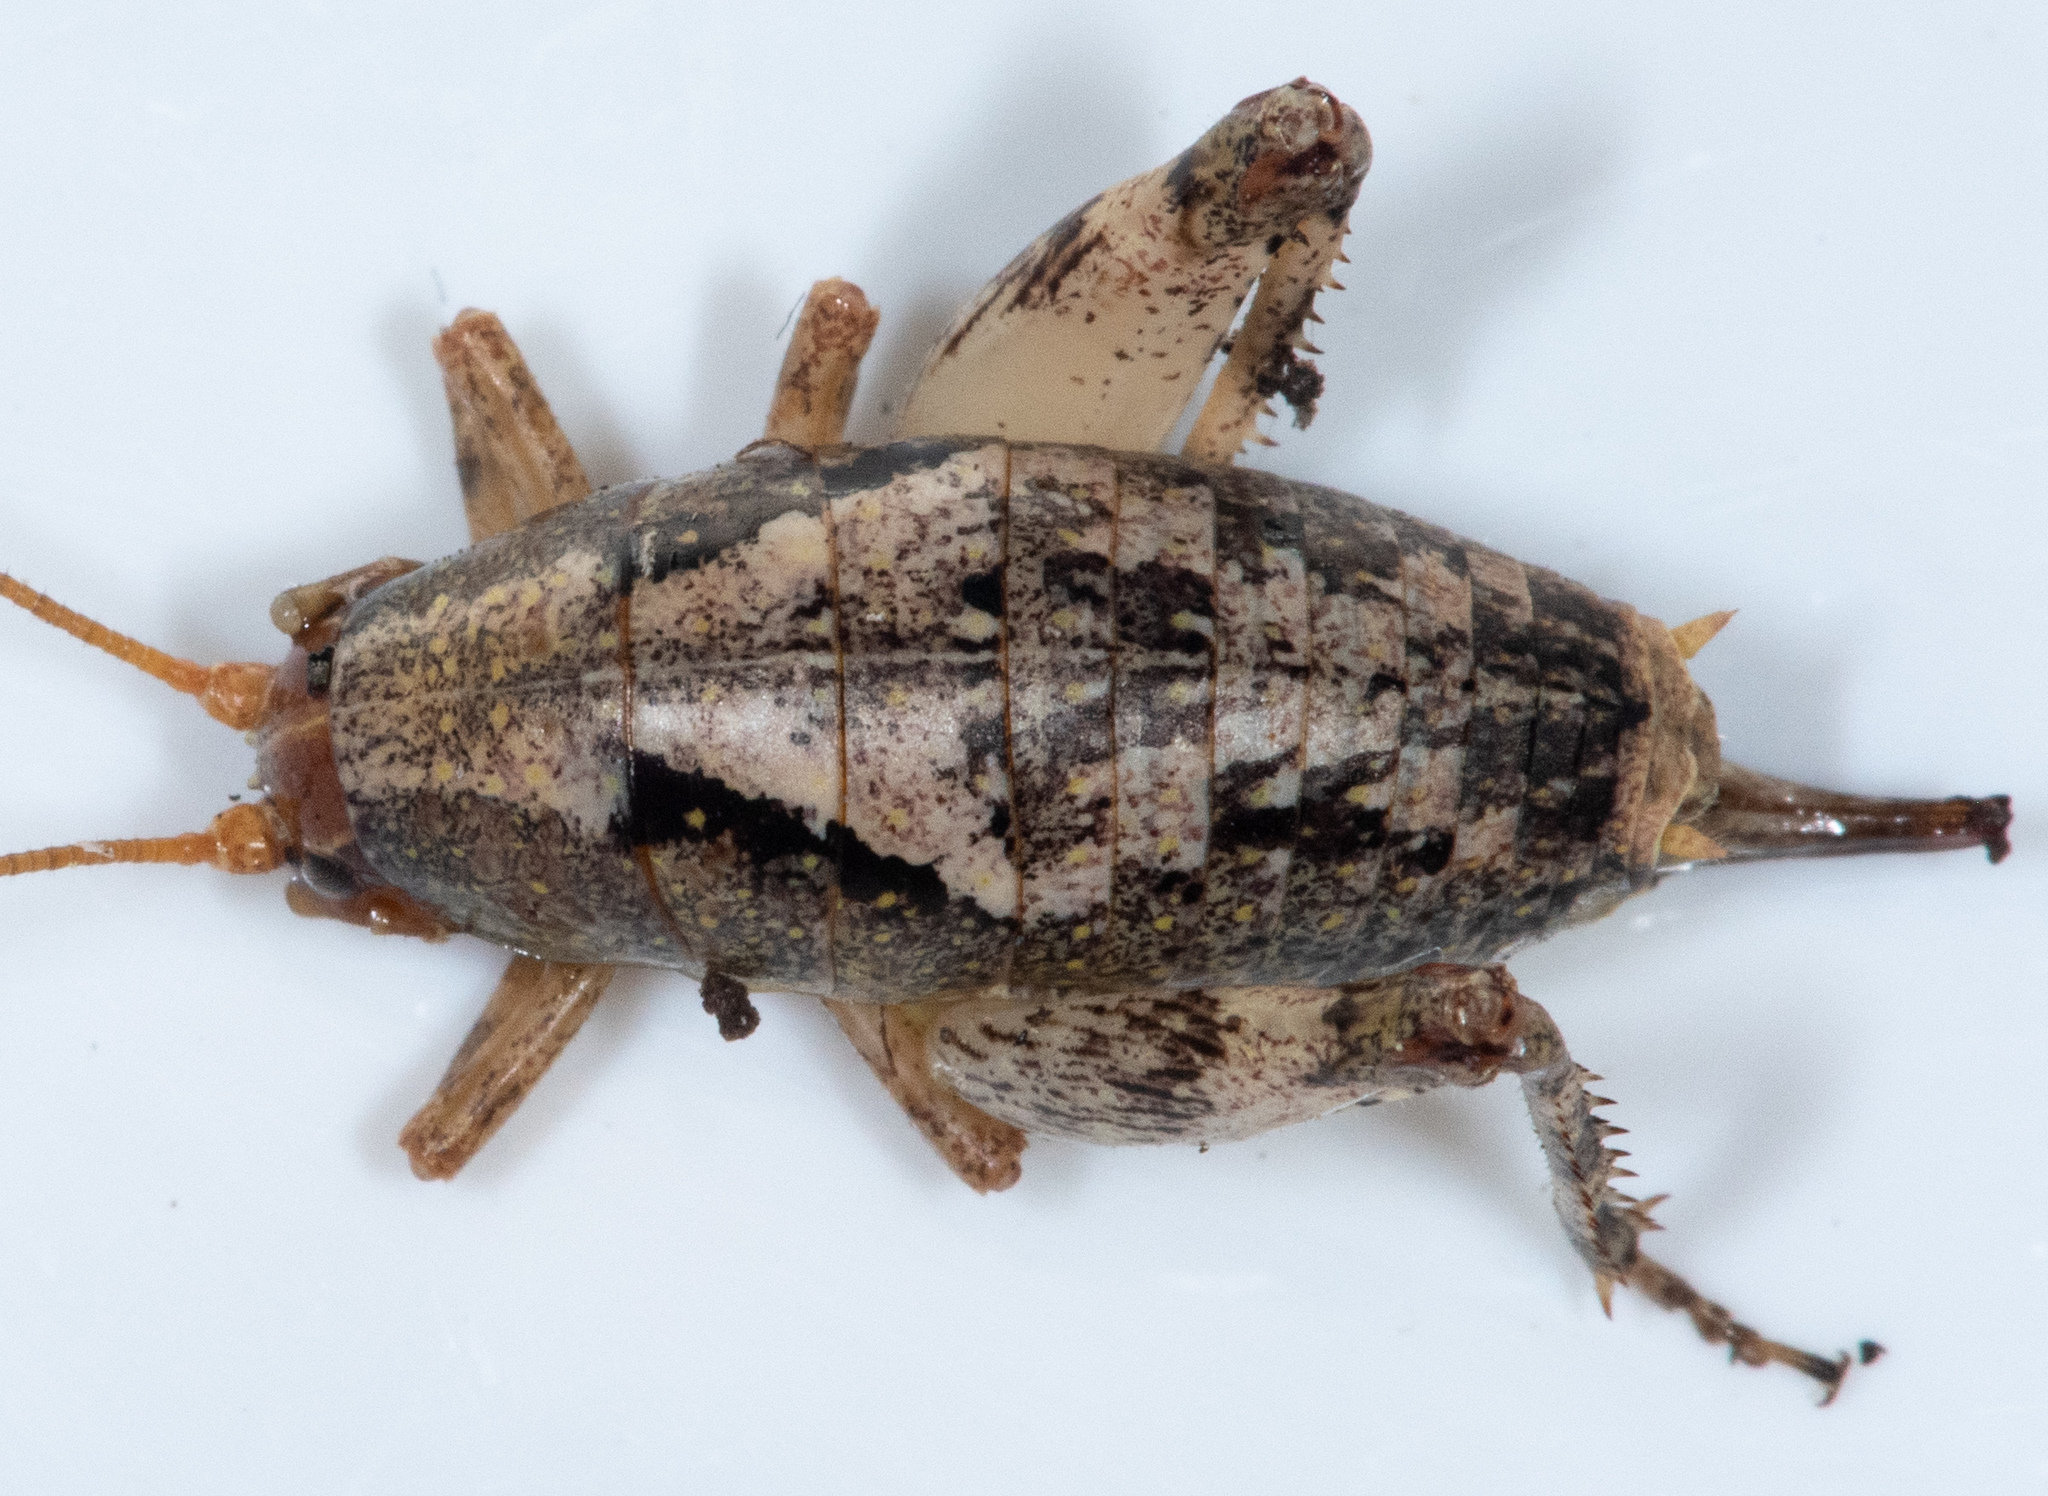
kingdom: Animalia
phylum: Arthropoda
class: Insecta
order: Orthoptera
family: Rhaphidophoridae
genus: Gammarotettix
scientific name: Gammarotettix bilobatus
